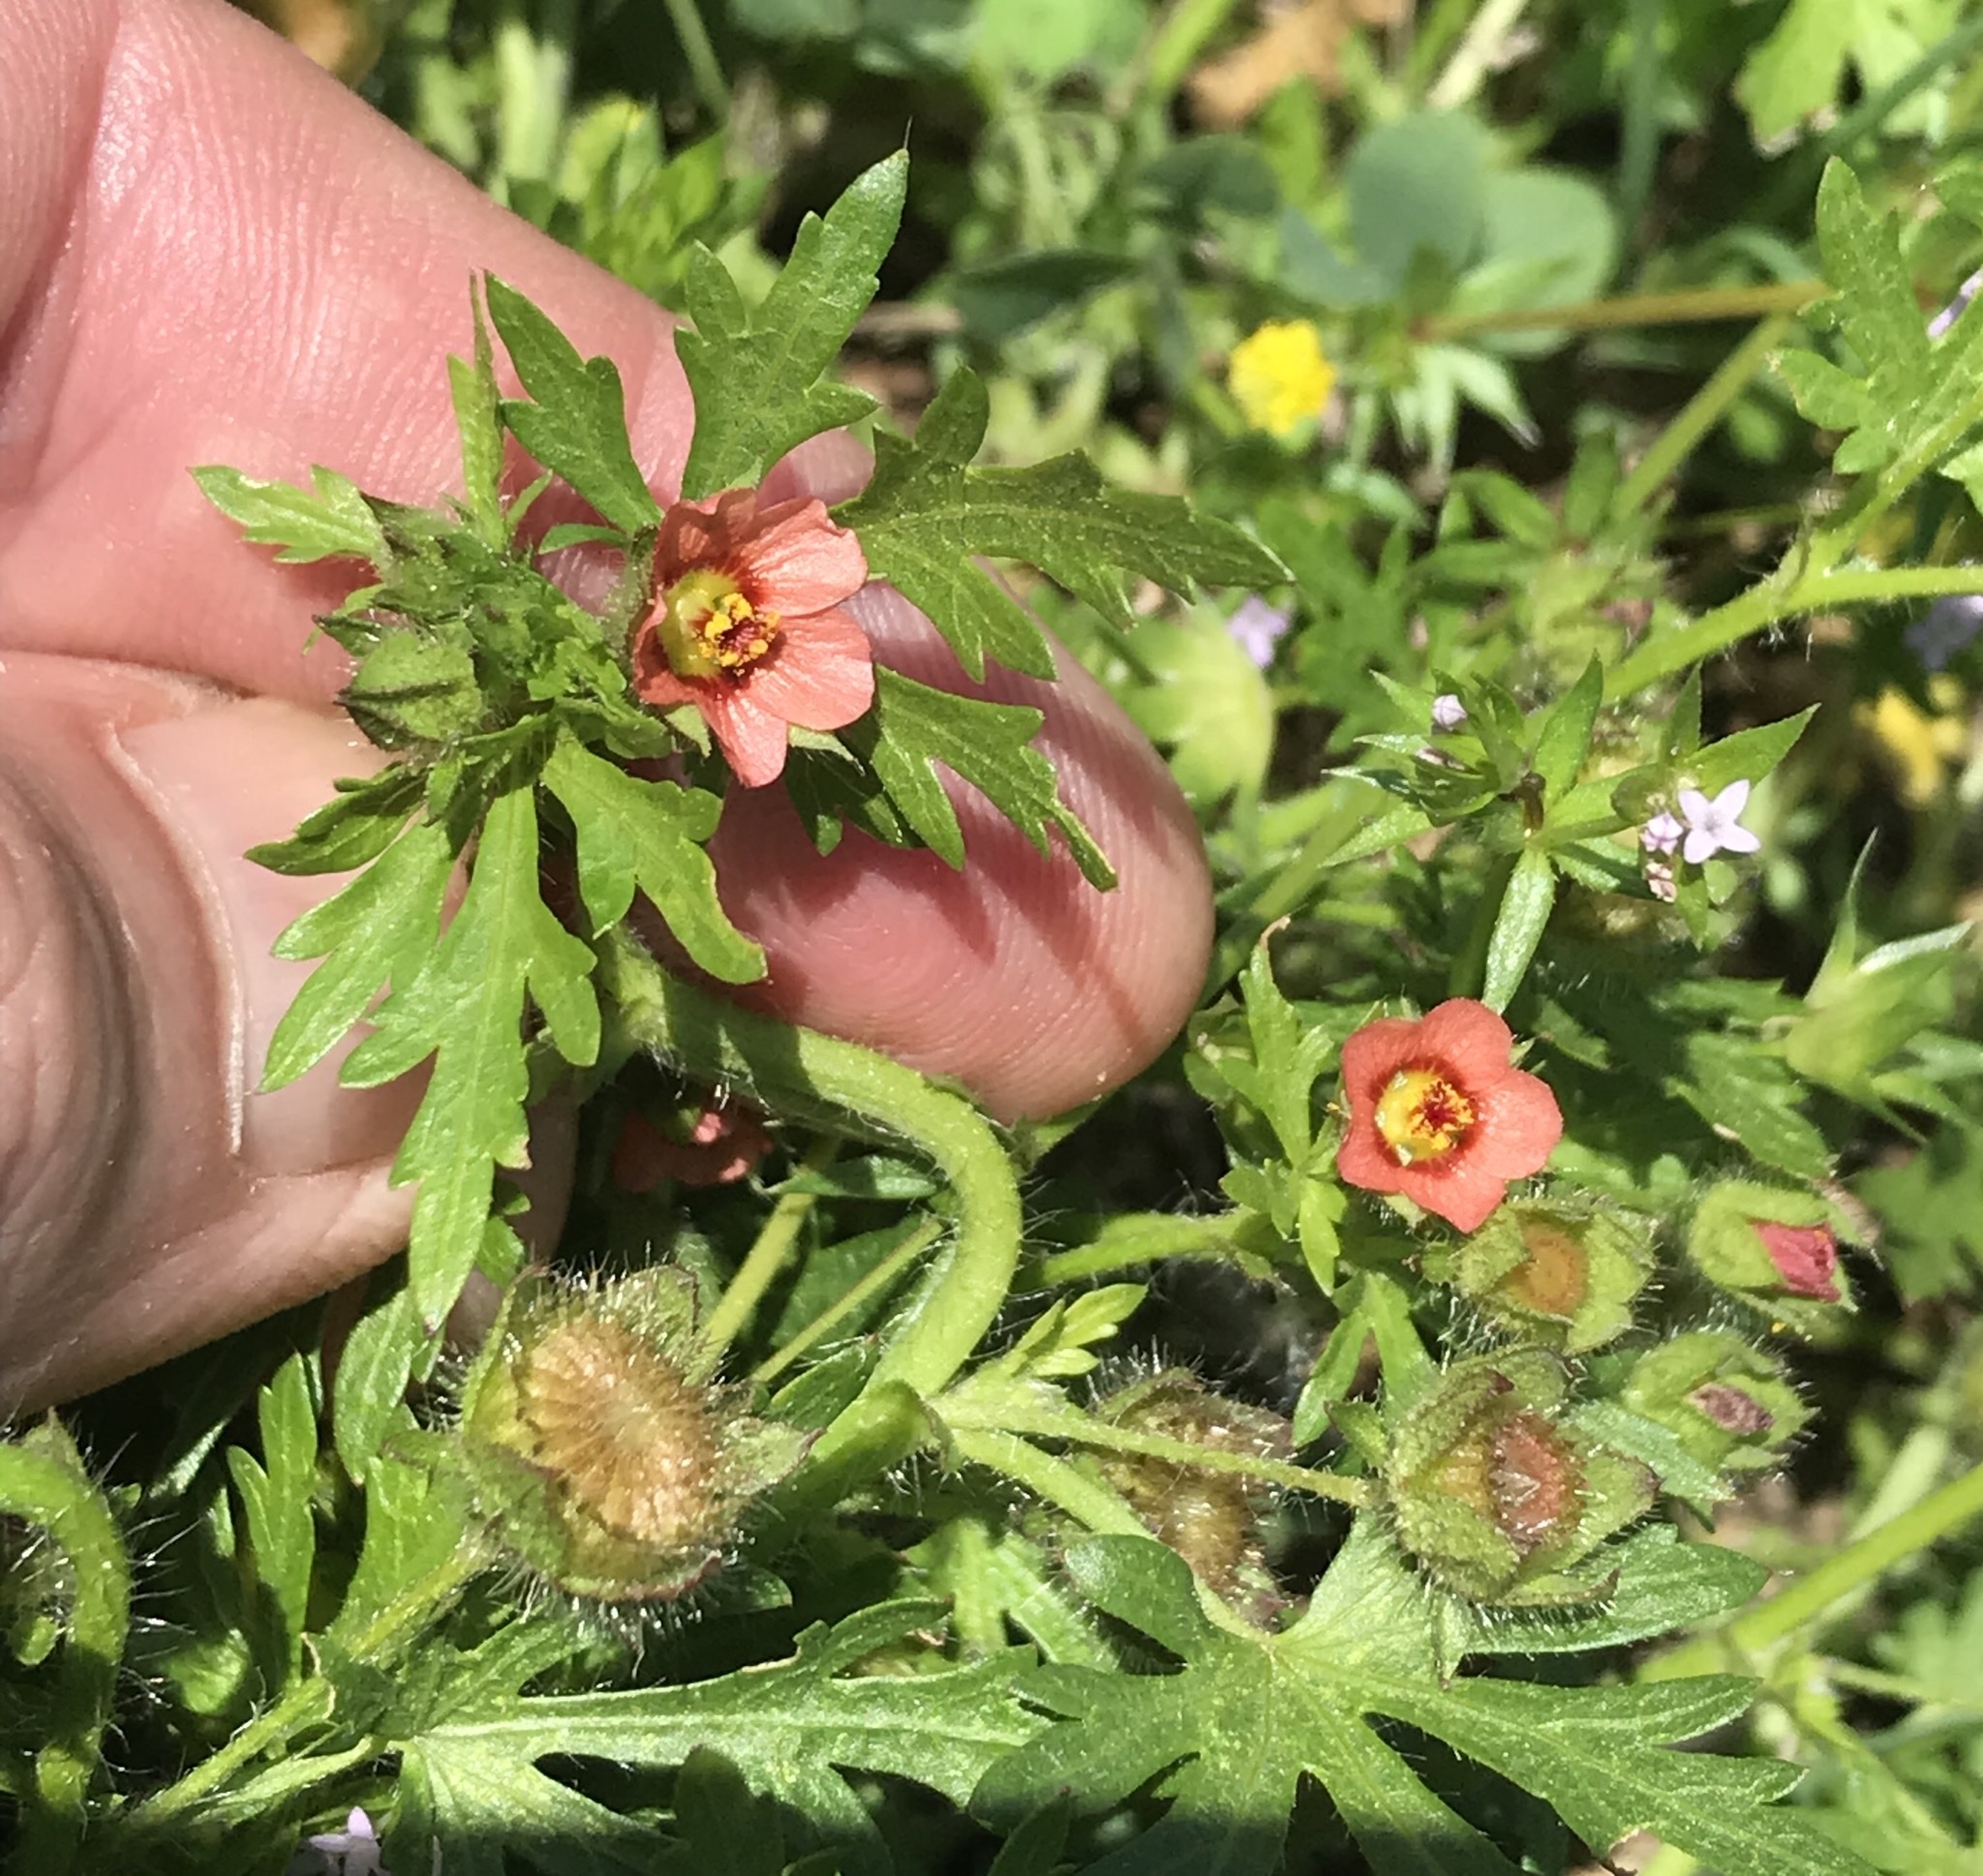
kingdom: Plantae
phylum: Tracheophyta
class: Magnoliopsida
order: Malvales
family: Malvaceae
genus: Modiola
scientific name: Modiola caroliniana
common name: Carolina bristlemallow
